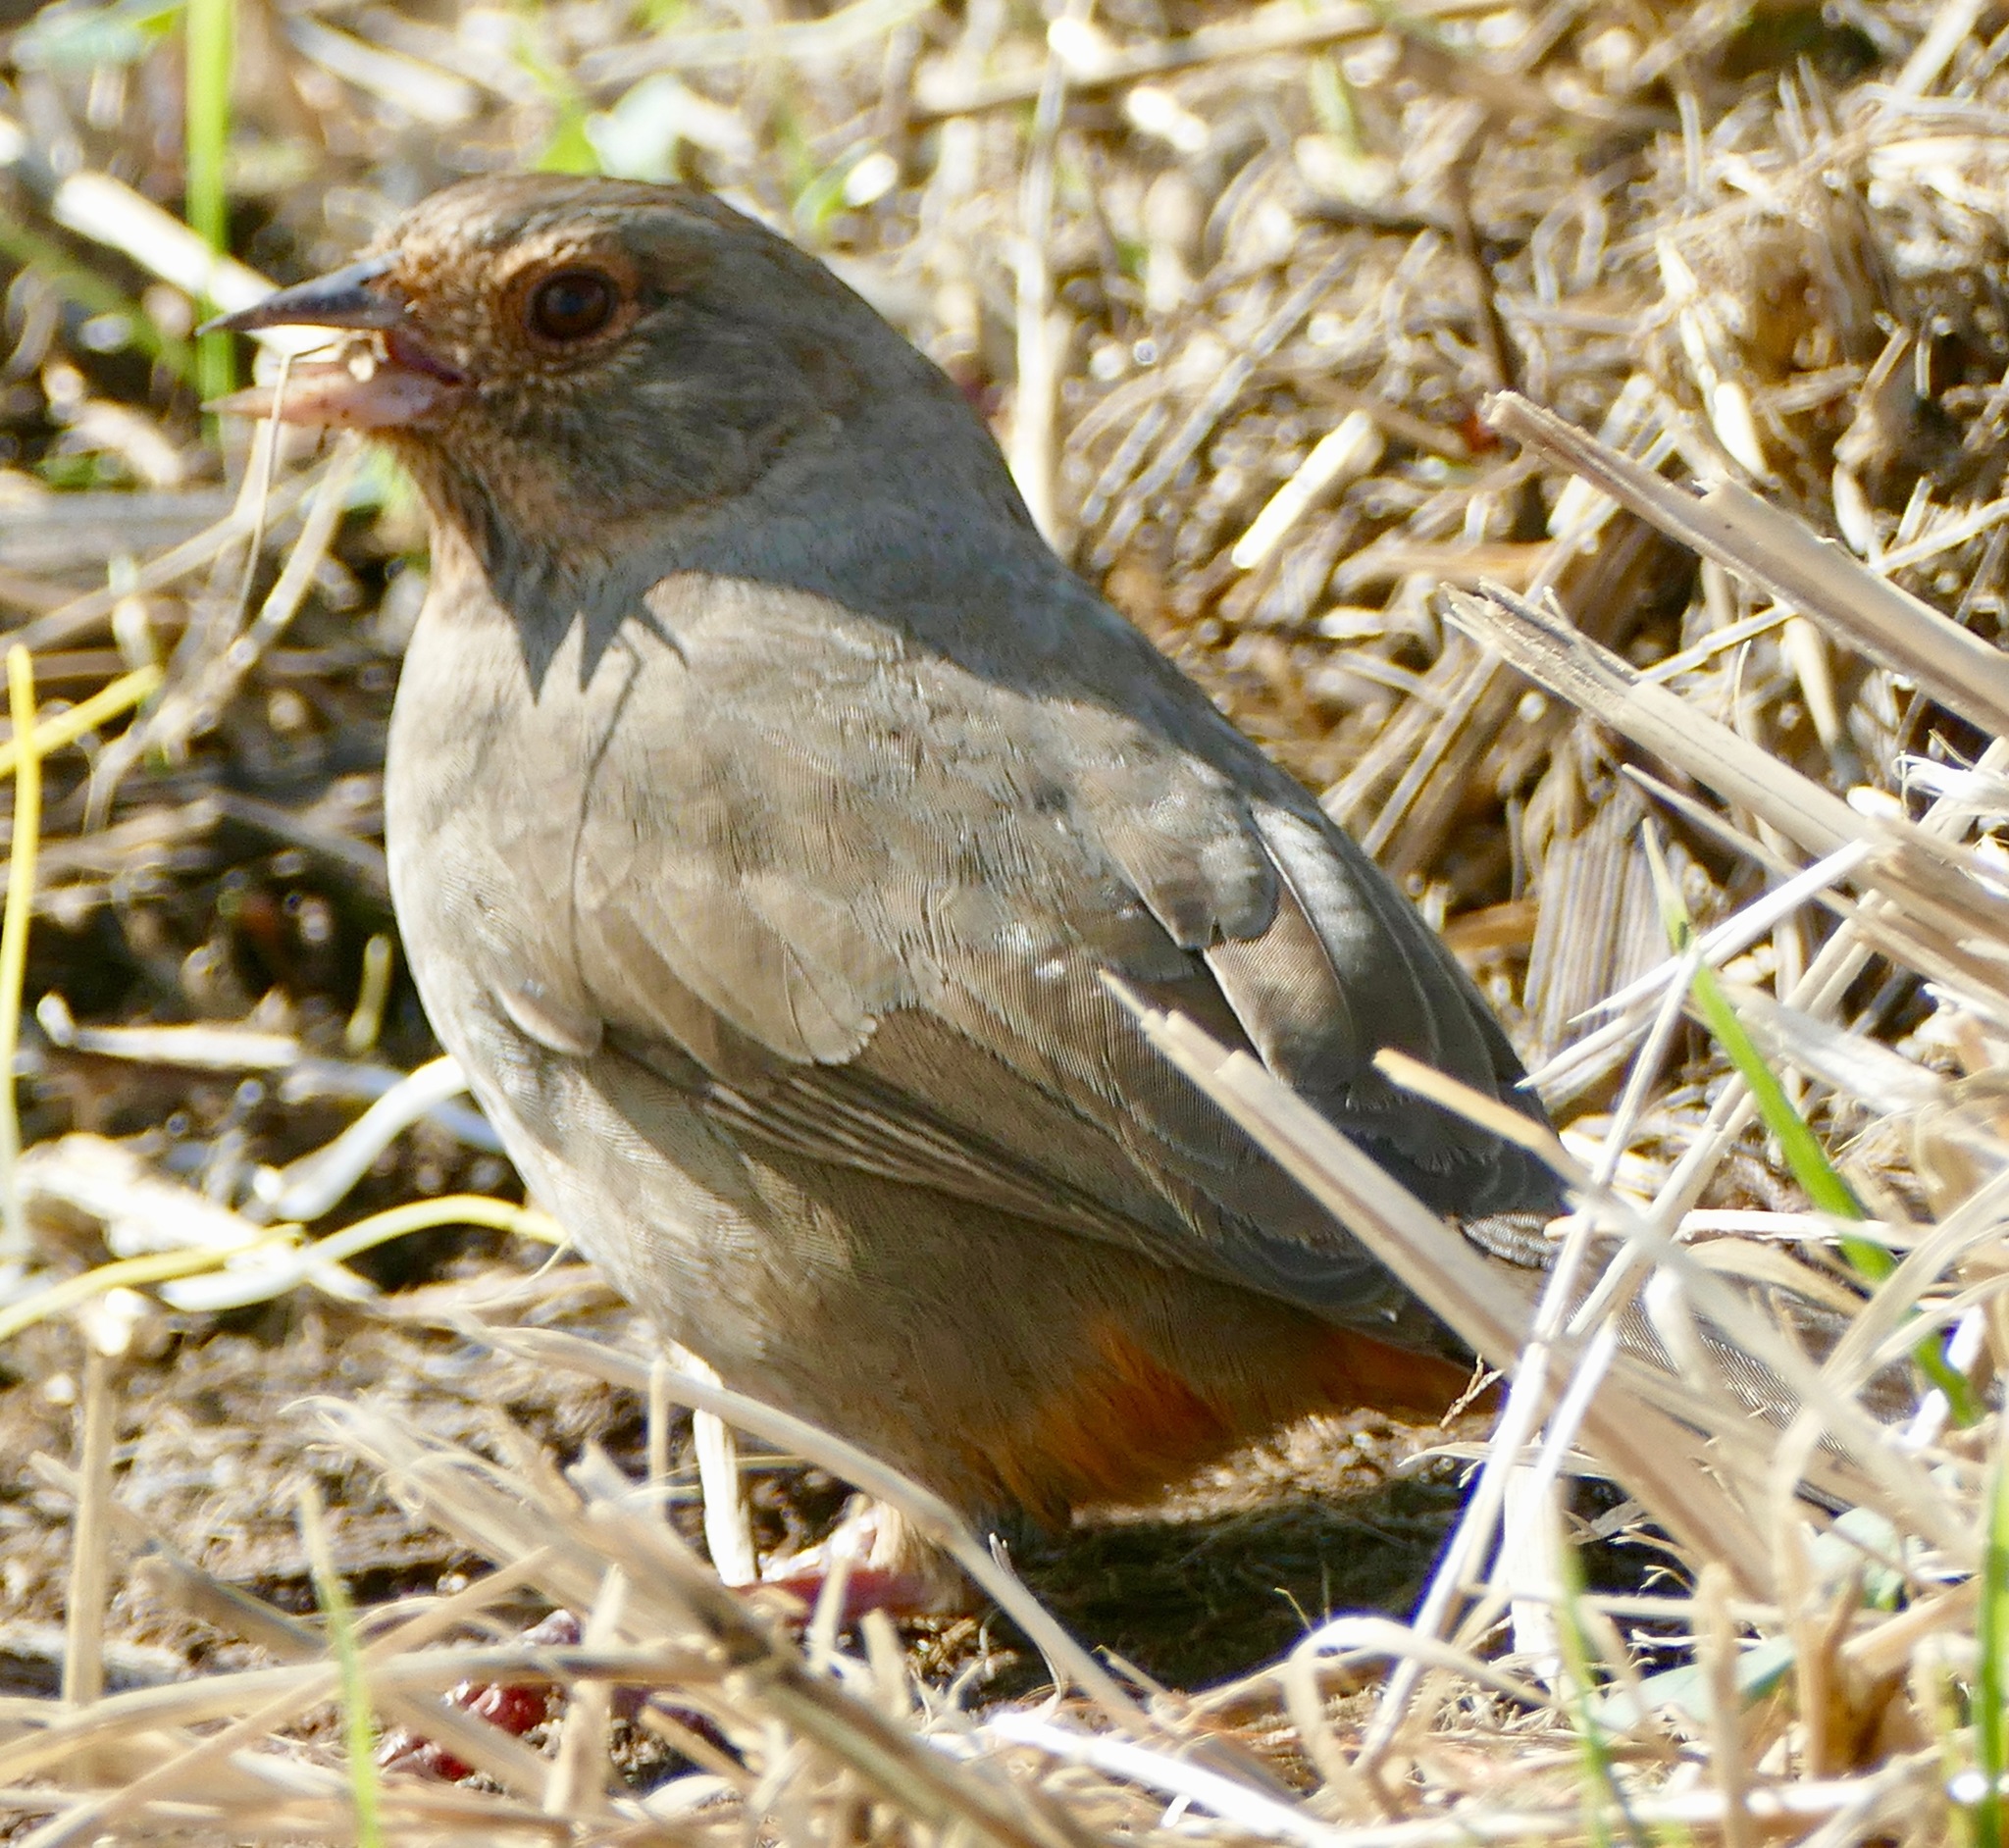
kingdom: Animalia
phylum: Chordata
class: Aves
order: Passeriformes
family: Passerellidae
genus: Melozone
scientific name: Melozone crissalis
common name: California towhee
